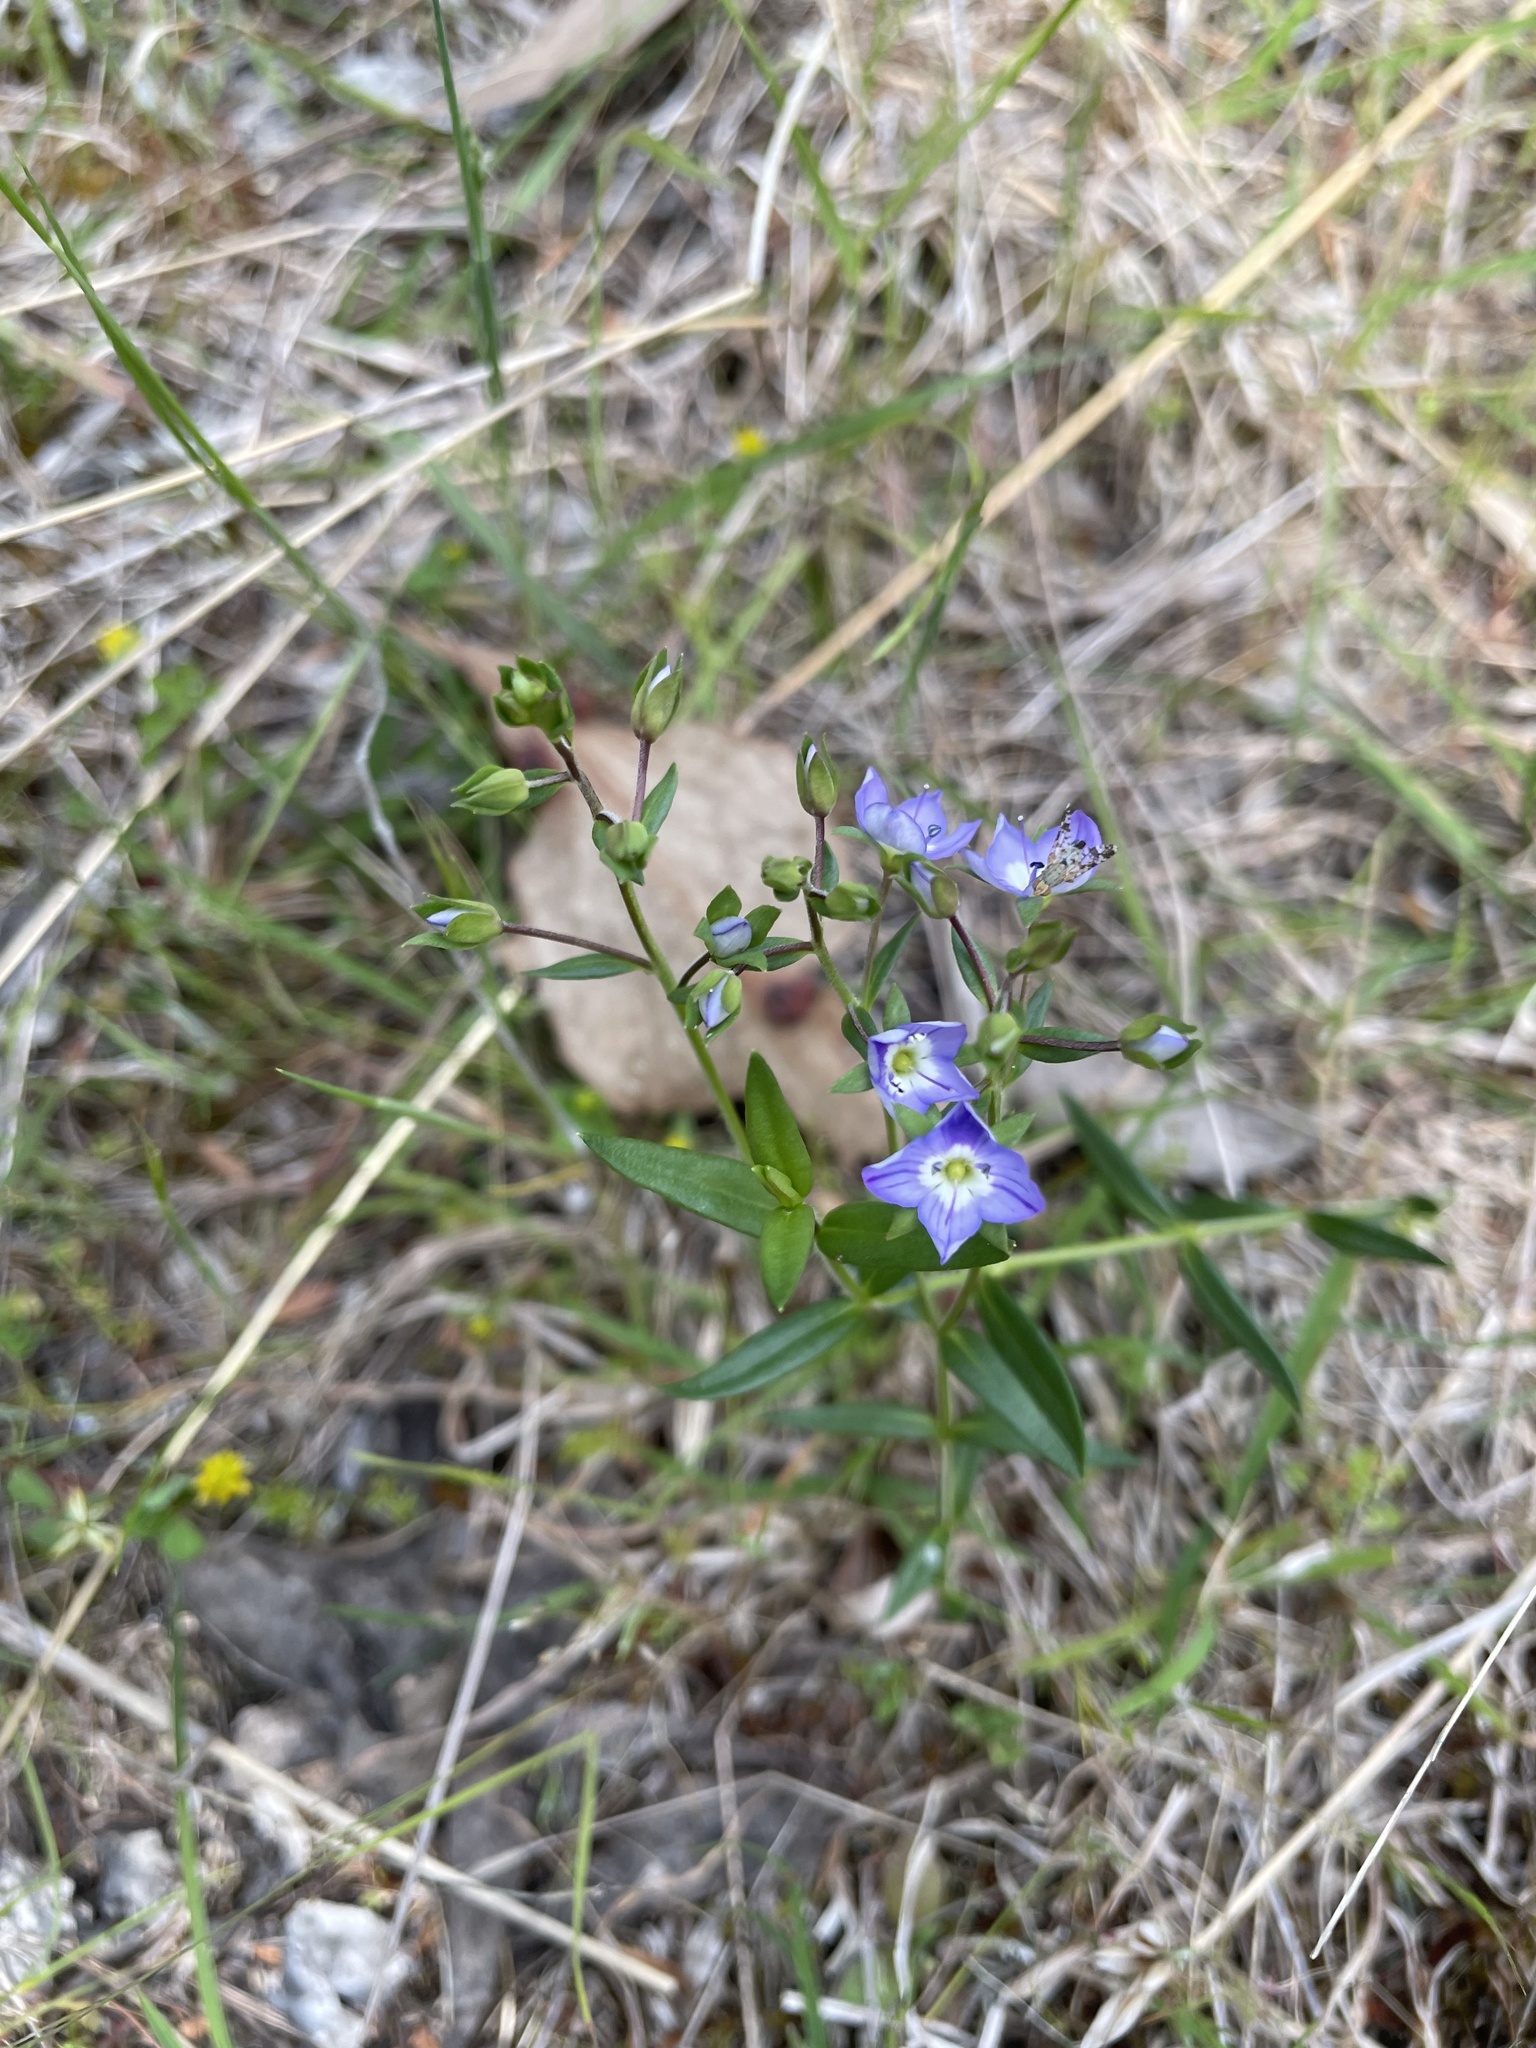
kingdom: Plantae
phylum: Tracheophyta
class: Magnoliopsida
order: Lamiales
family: Plantaginaceae
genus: Veronica
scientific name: Veronica gracilis
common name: Slender speedwell
